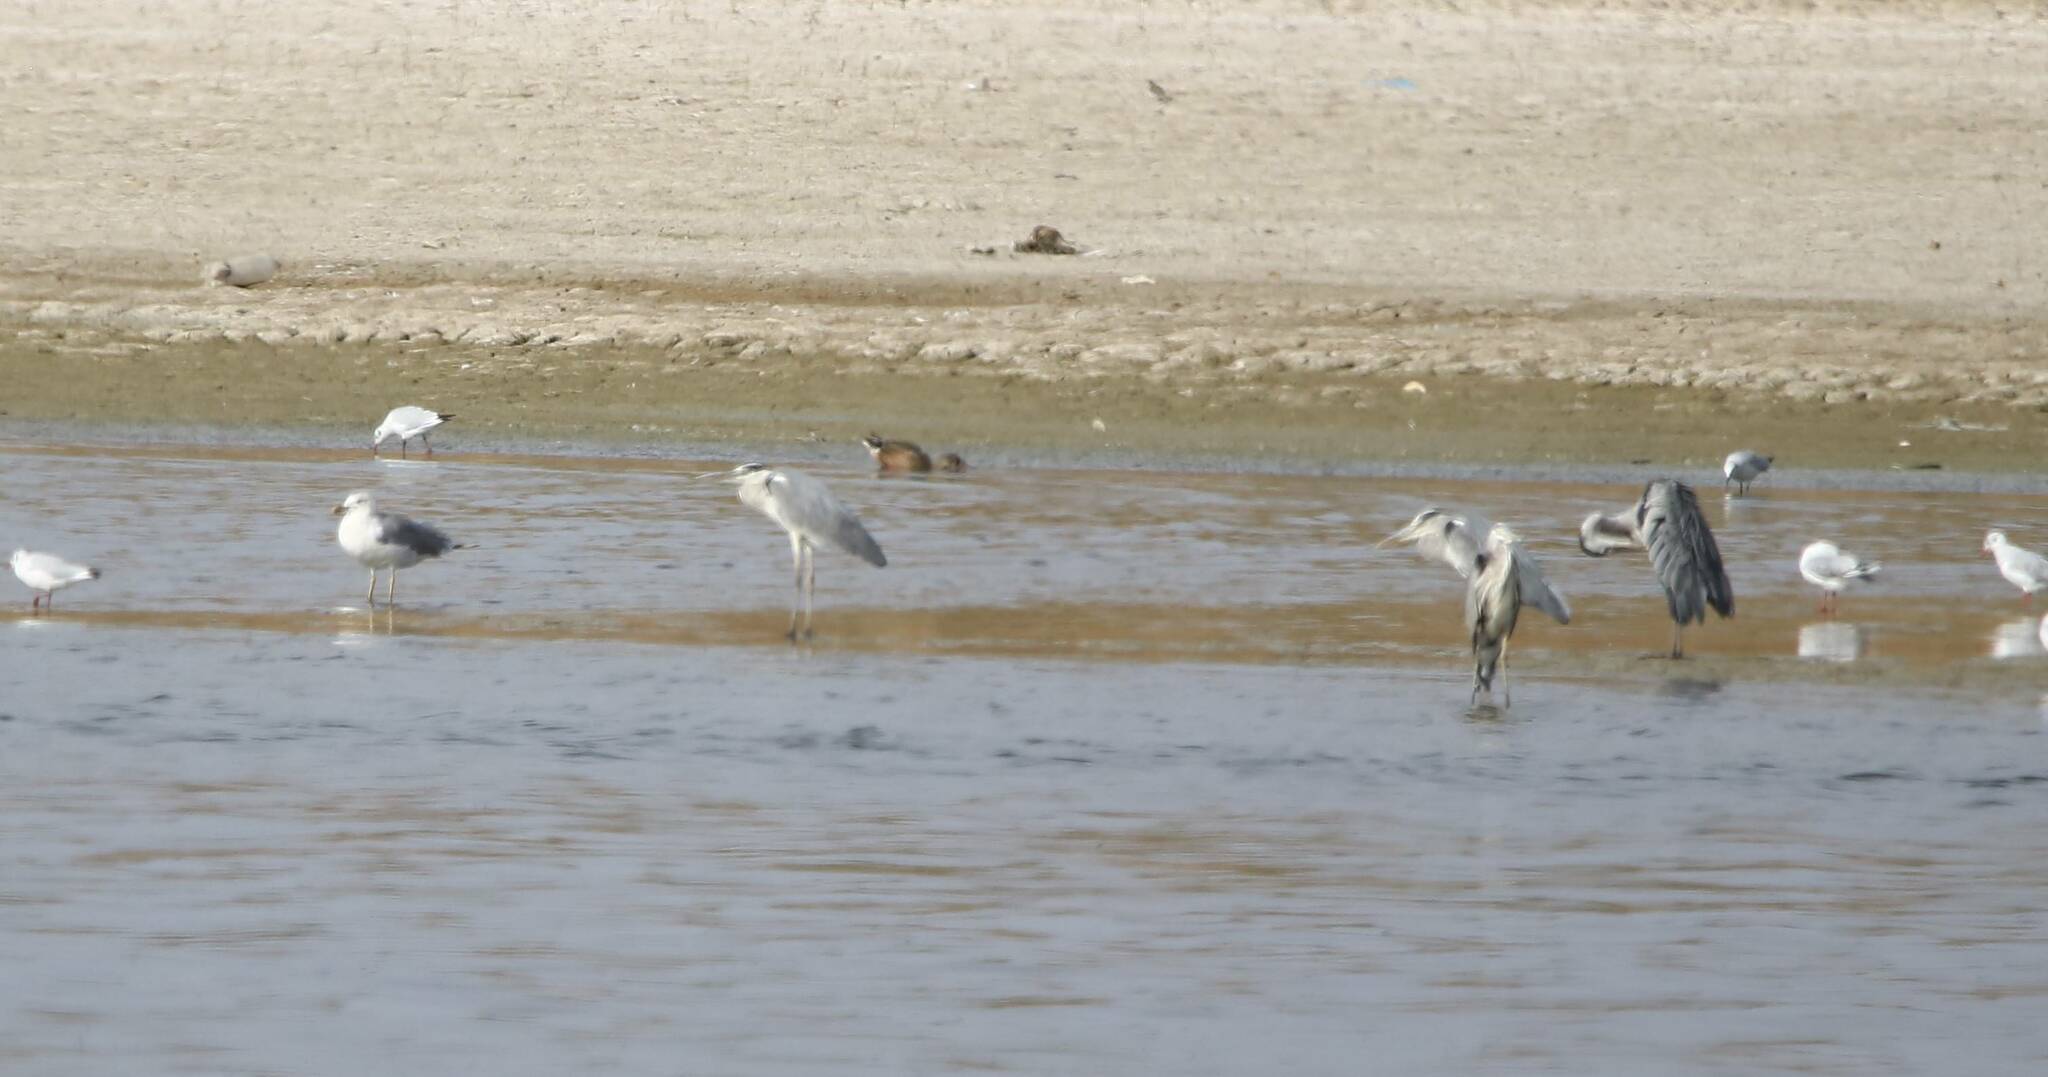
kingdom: Animalia
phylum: Chordata
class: Aves
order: Pelecaniformes
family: Ardeidae
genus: Ardea
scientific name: Ardea cinerea
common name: Grey heron
